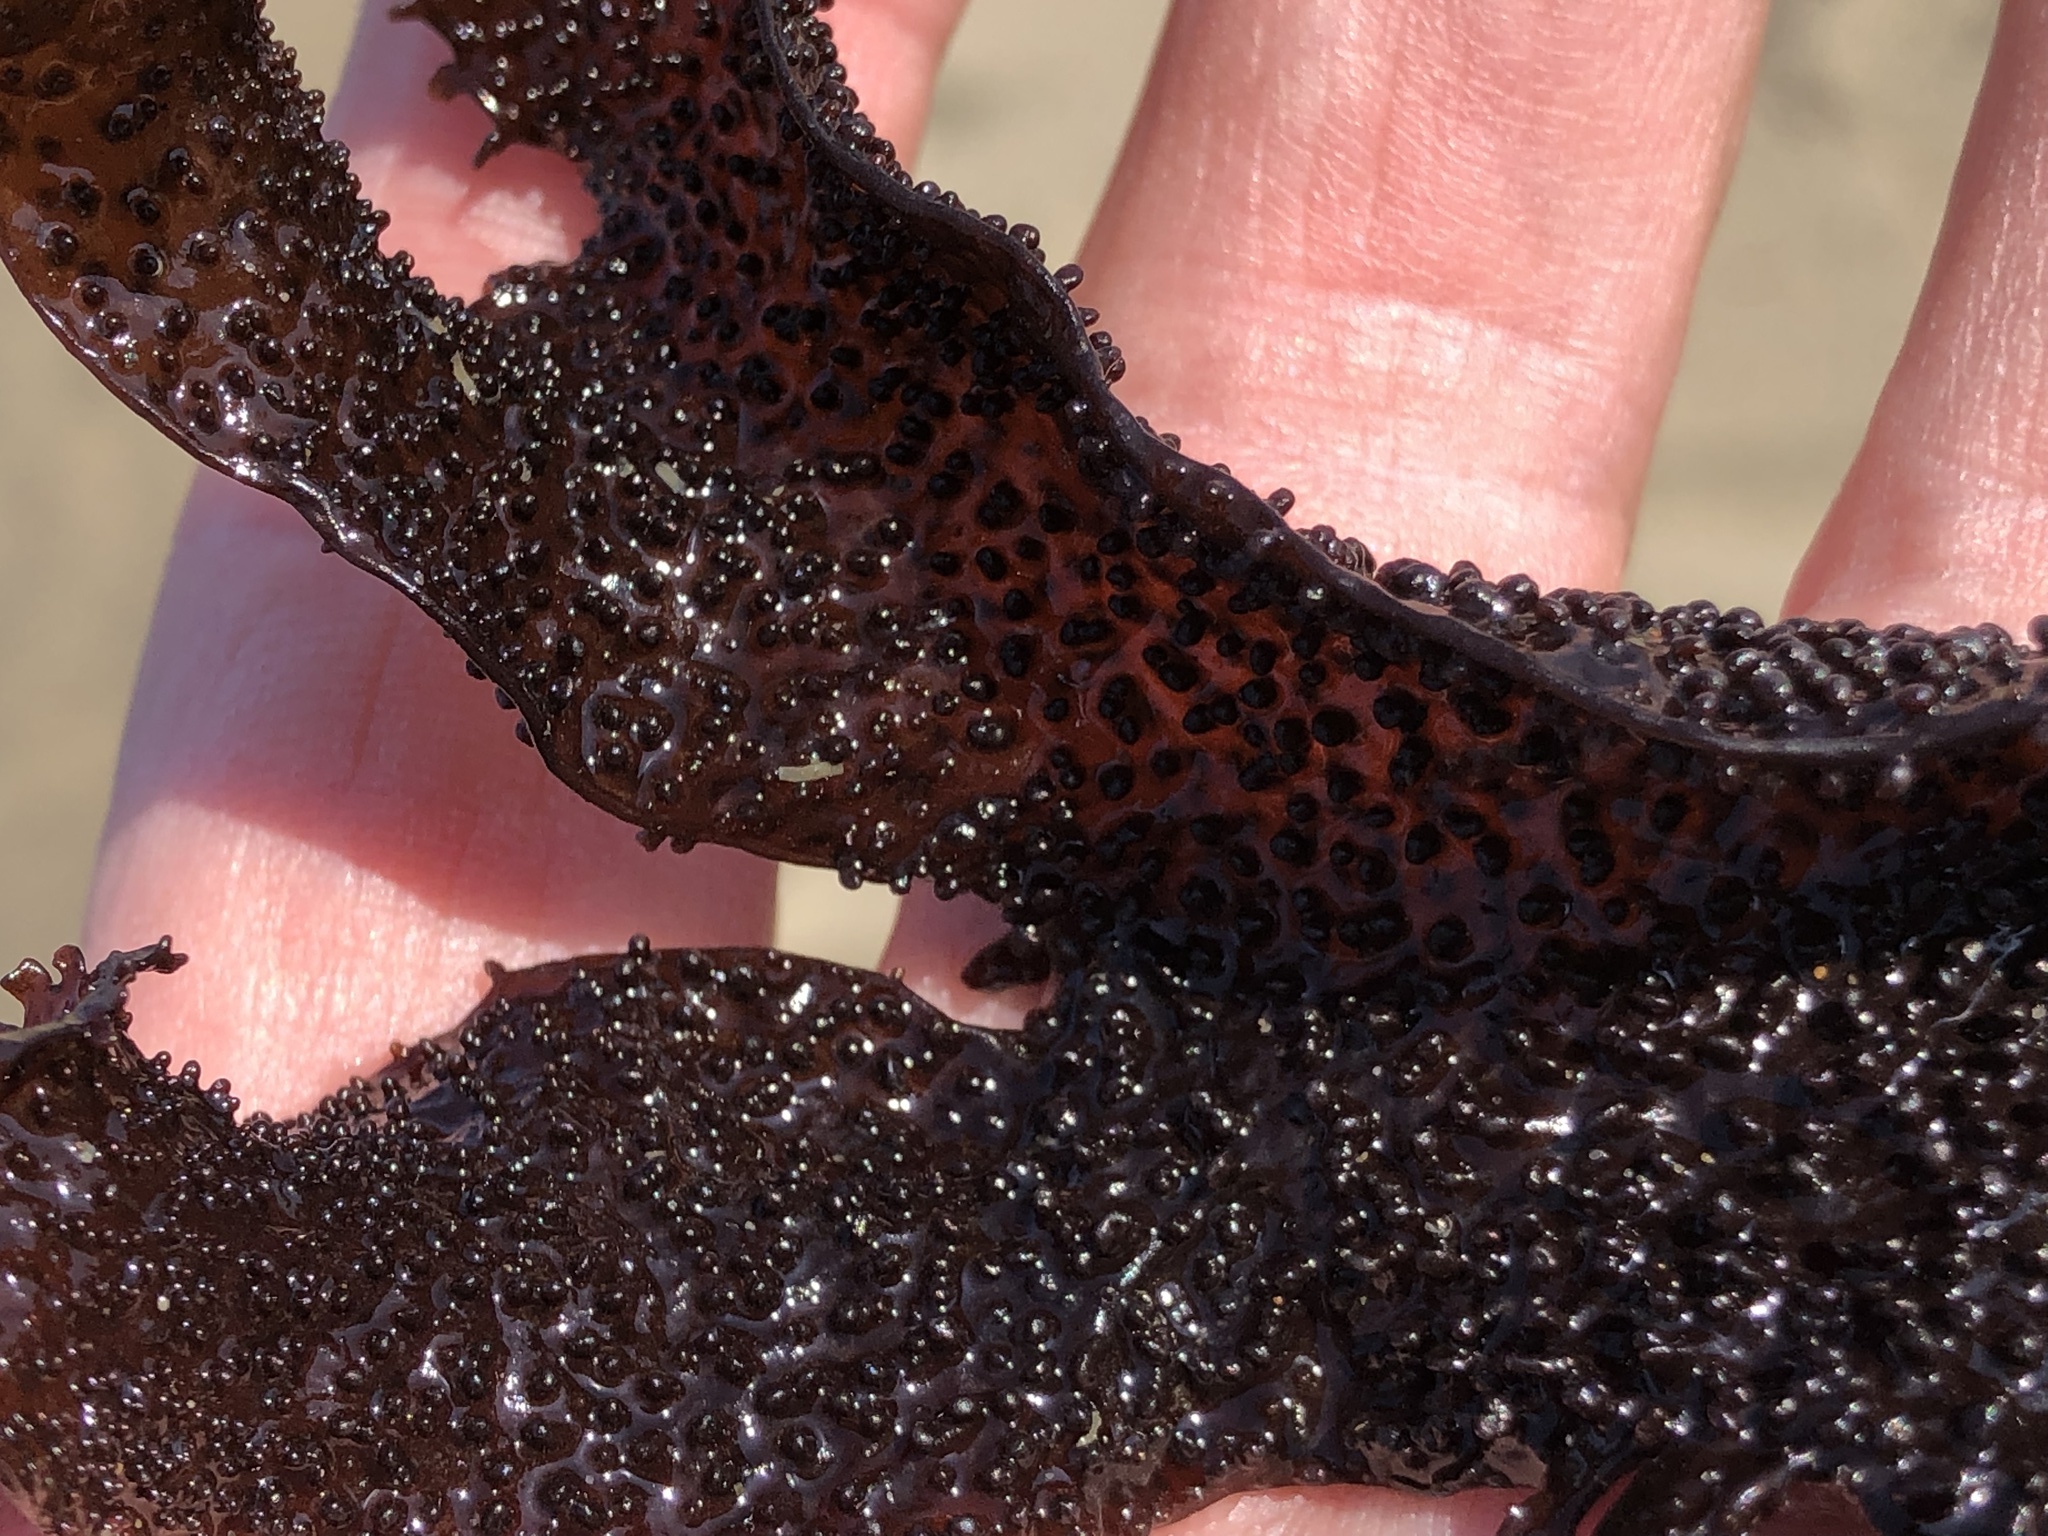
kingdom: Plantae
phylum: Rhodophyta
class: Florideophyceae
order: Gigartinales
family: Phyllophoraceae
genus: Mastocarpus
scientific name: Mastocarpus papillatus
